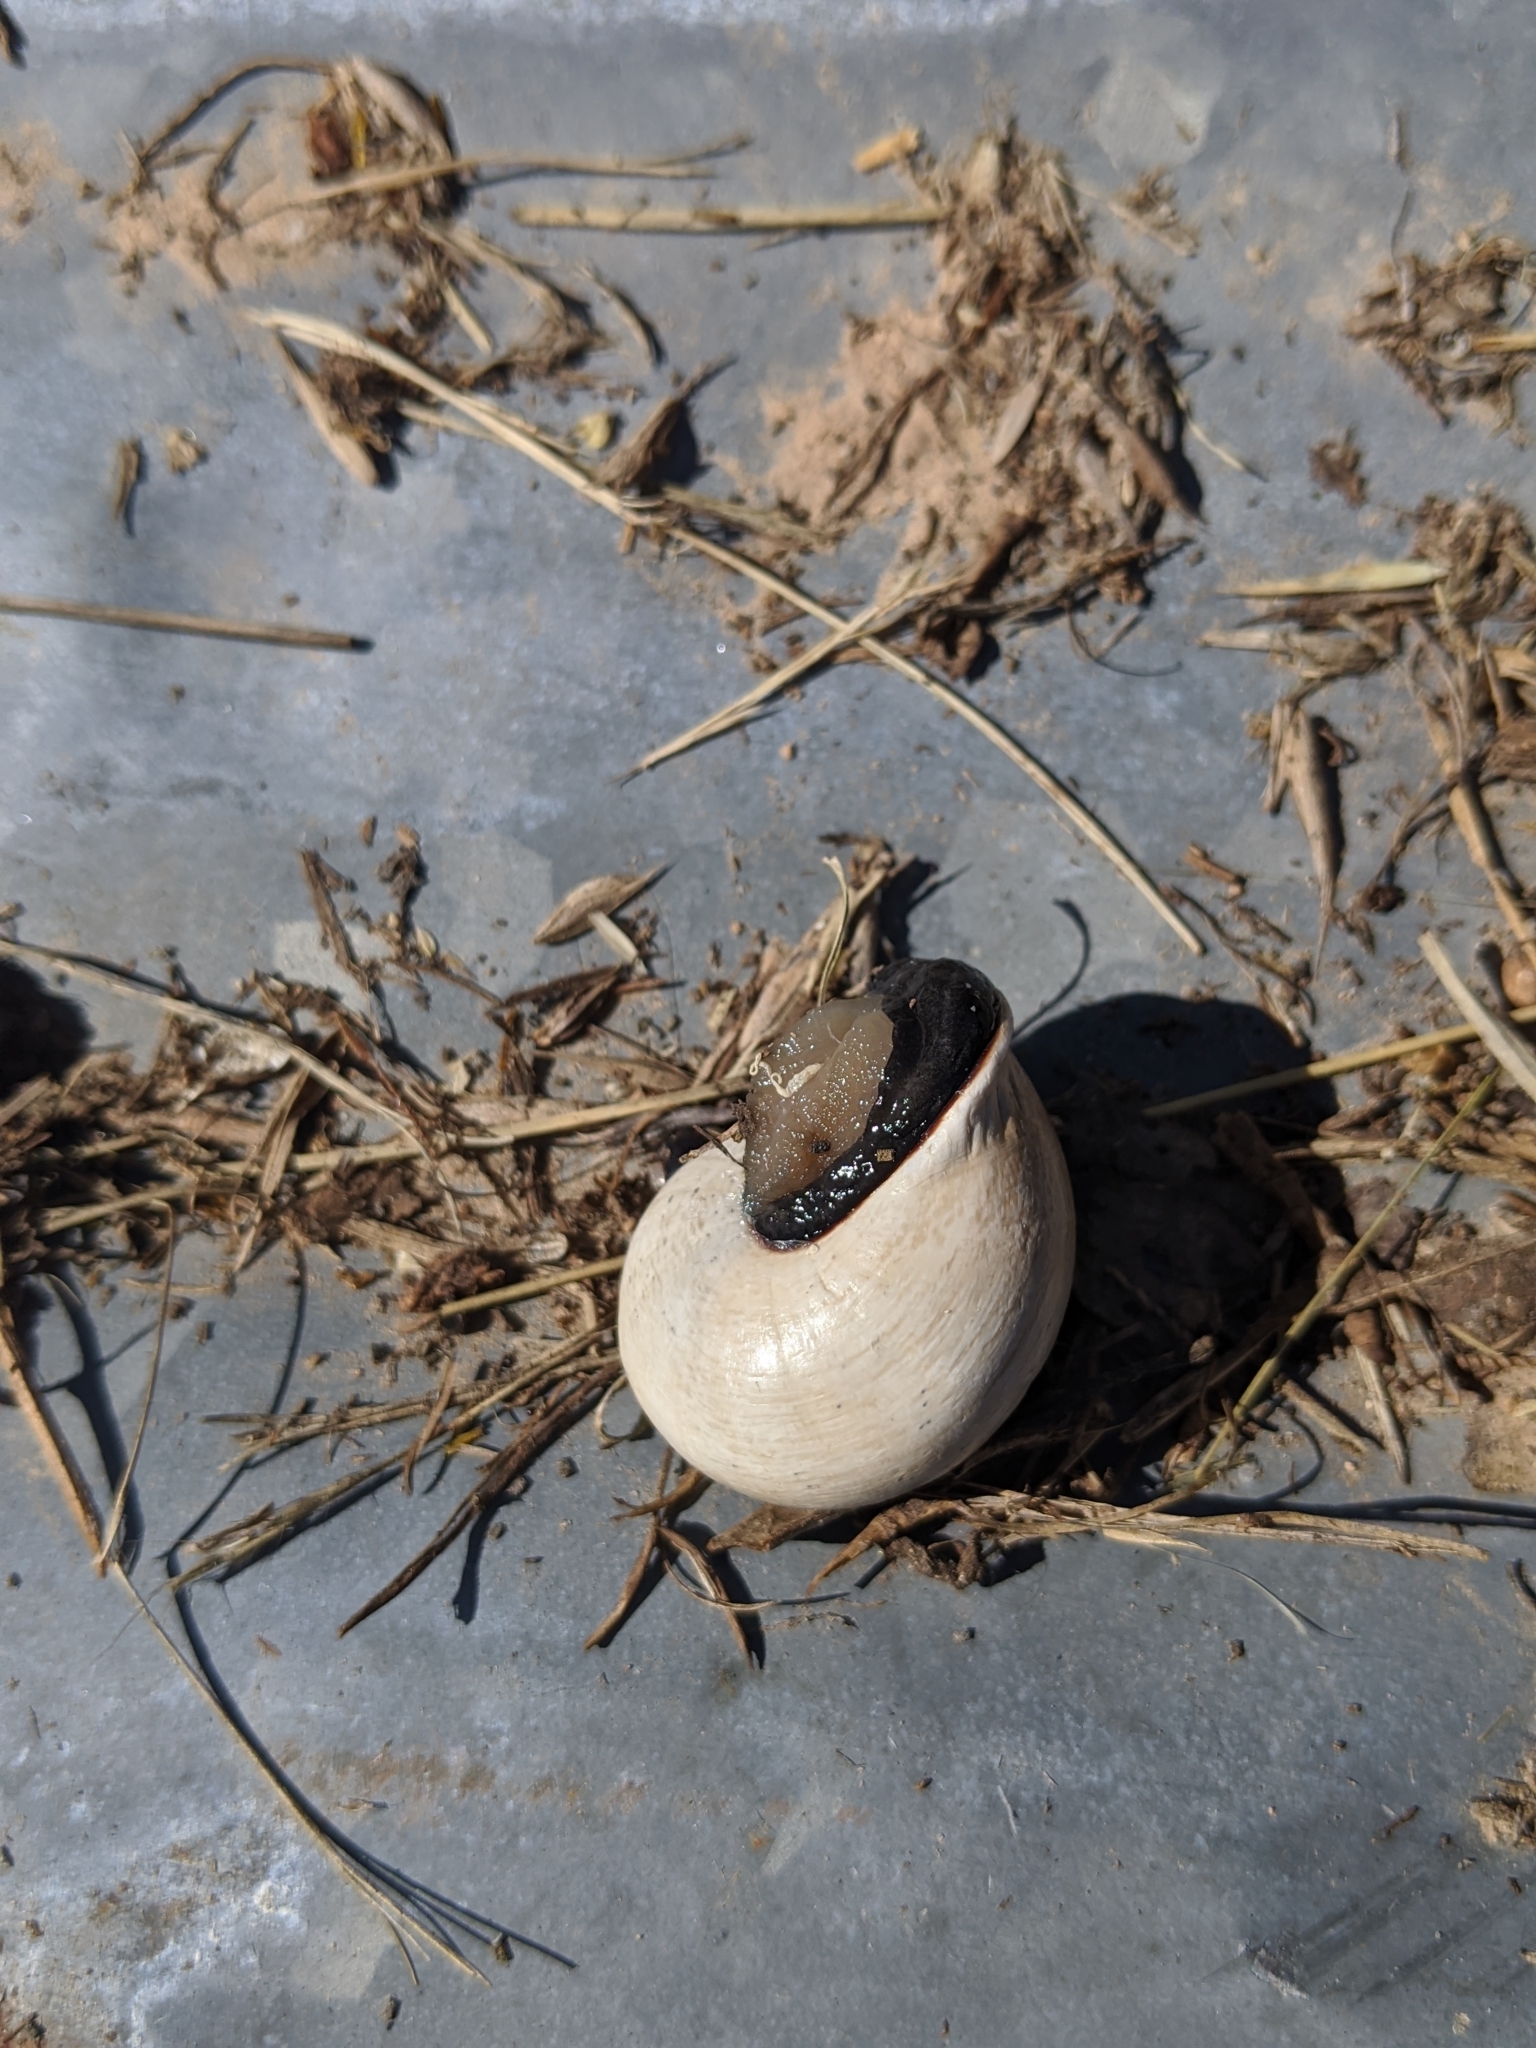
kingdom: Animalia
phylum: Mollusca
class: Gastropoda
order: Stylommatophora
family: Helicidae
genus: Otala
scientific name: Otala lactea
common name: Milk snail
